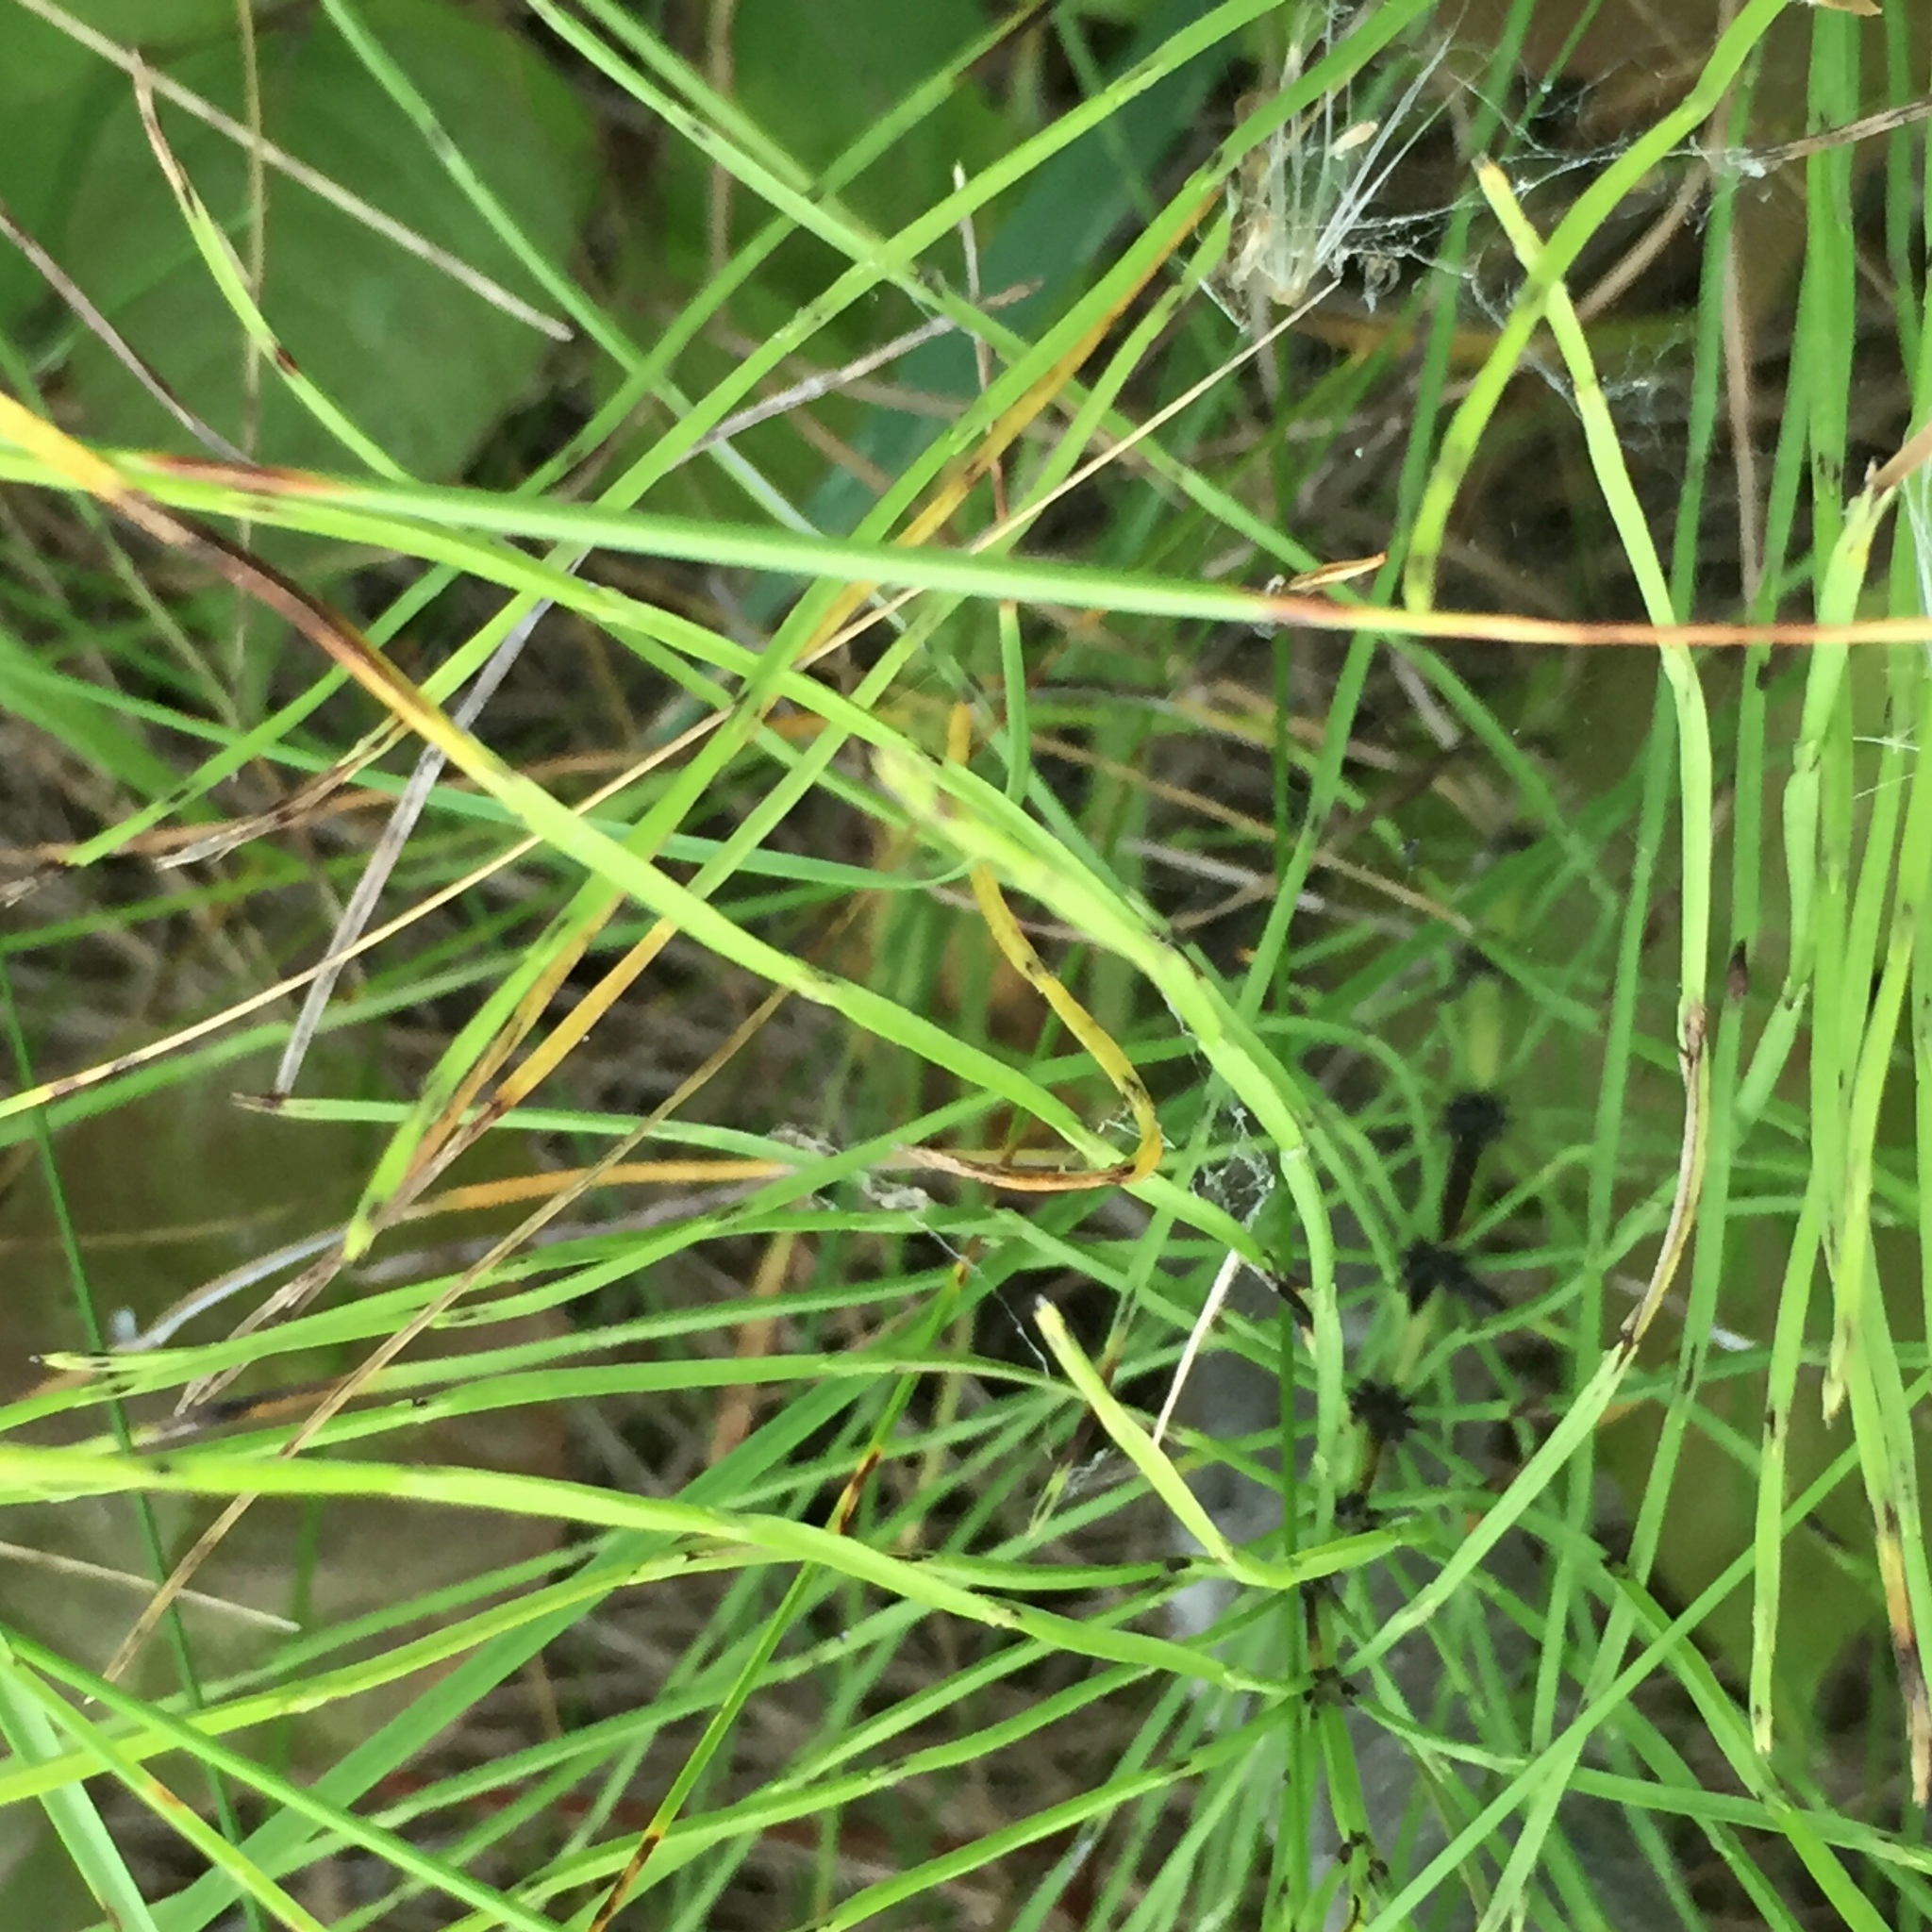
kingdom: Plantae
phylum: Tracheophyta
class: Polypodiopsida
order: Equisetales
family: Equisetaceae
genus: Equisetum
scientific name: Equisetum arvense
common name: Field horsetail
